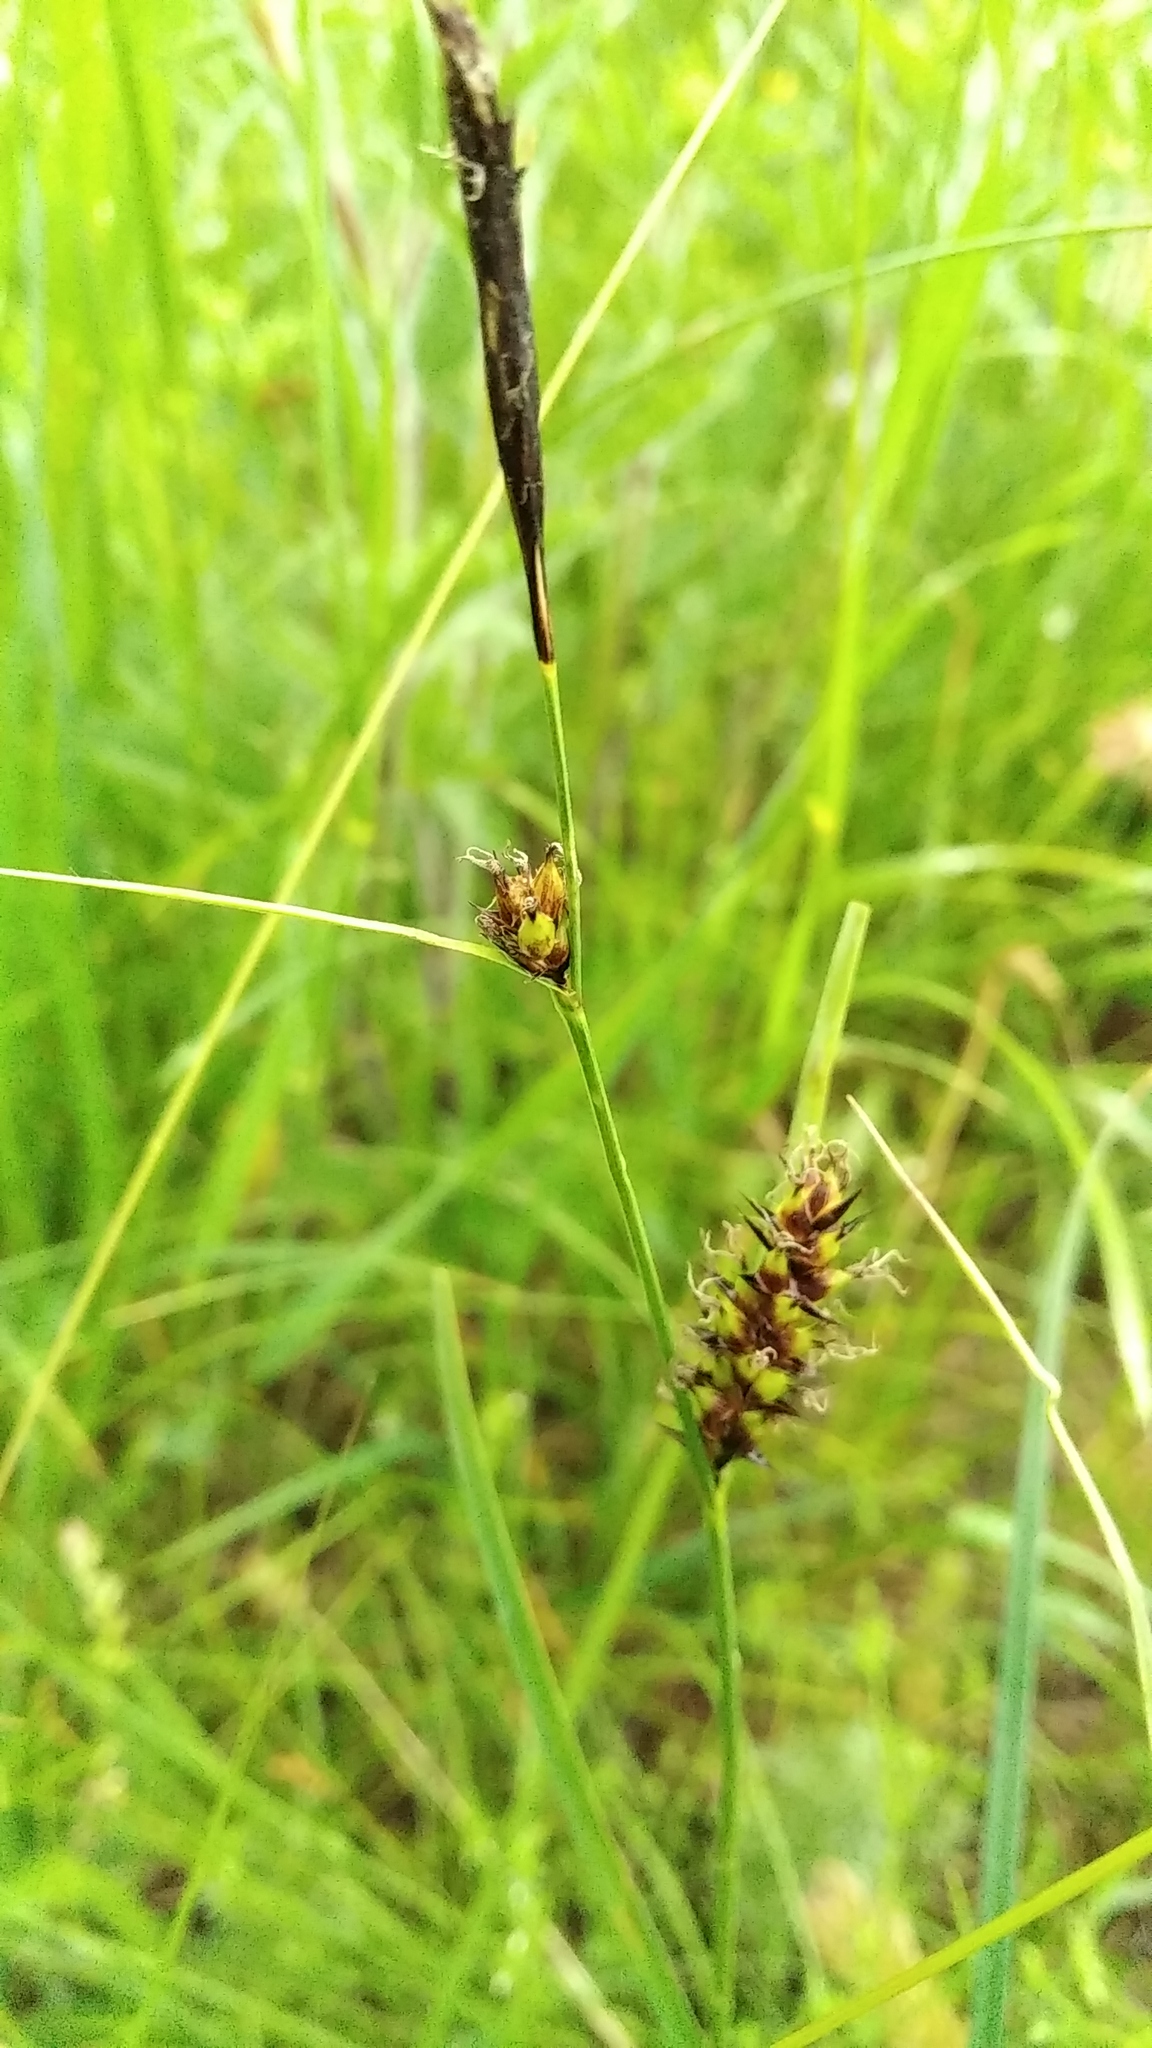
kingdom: Plantae
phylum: Tracheophyta
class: Liliopsida
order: Poales
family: Cyperaceae
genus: Carex
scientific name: Carex melanostachya
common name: Black-spiked sedge
